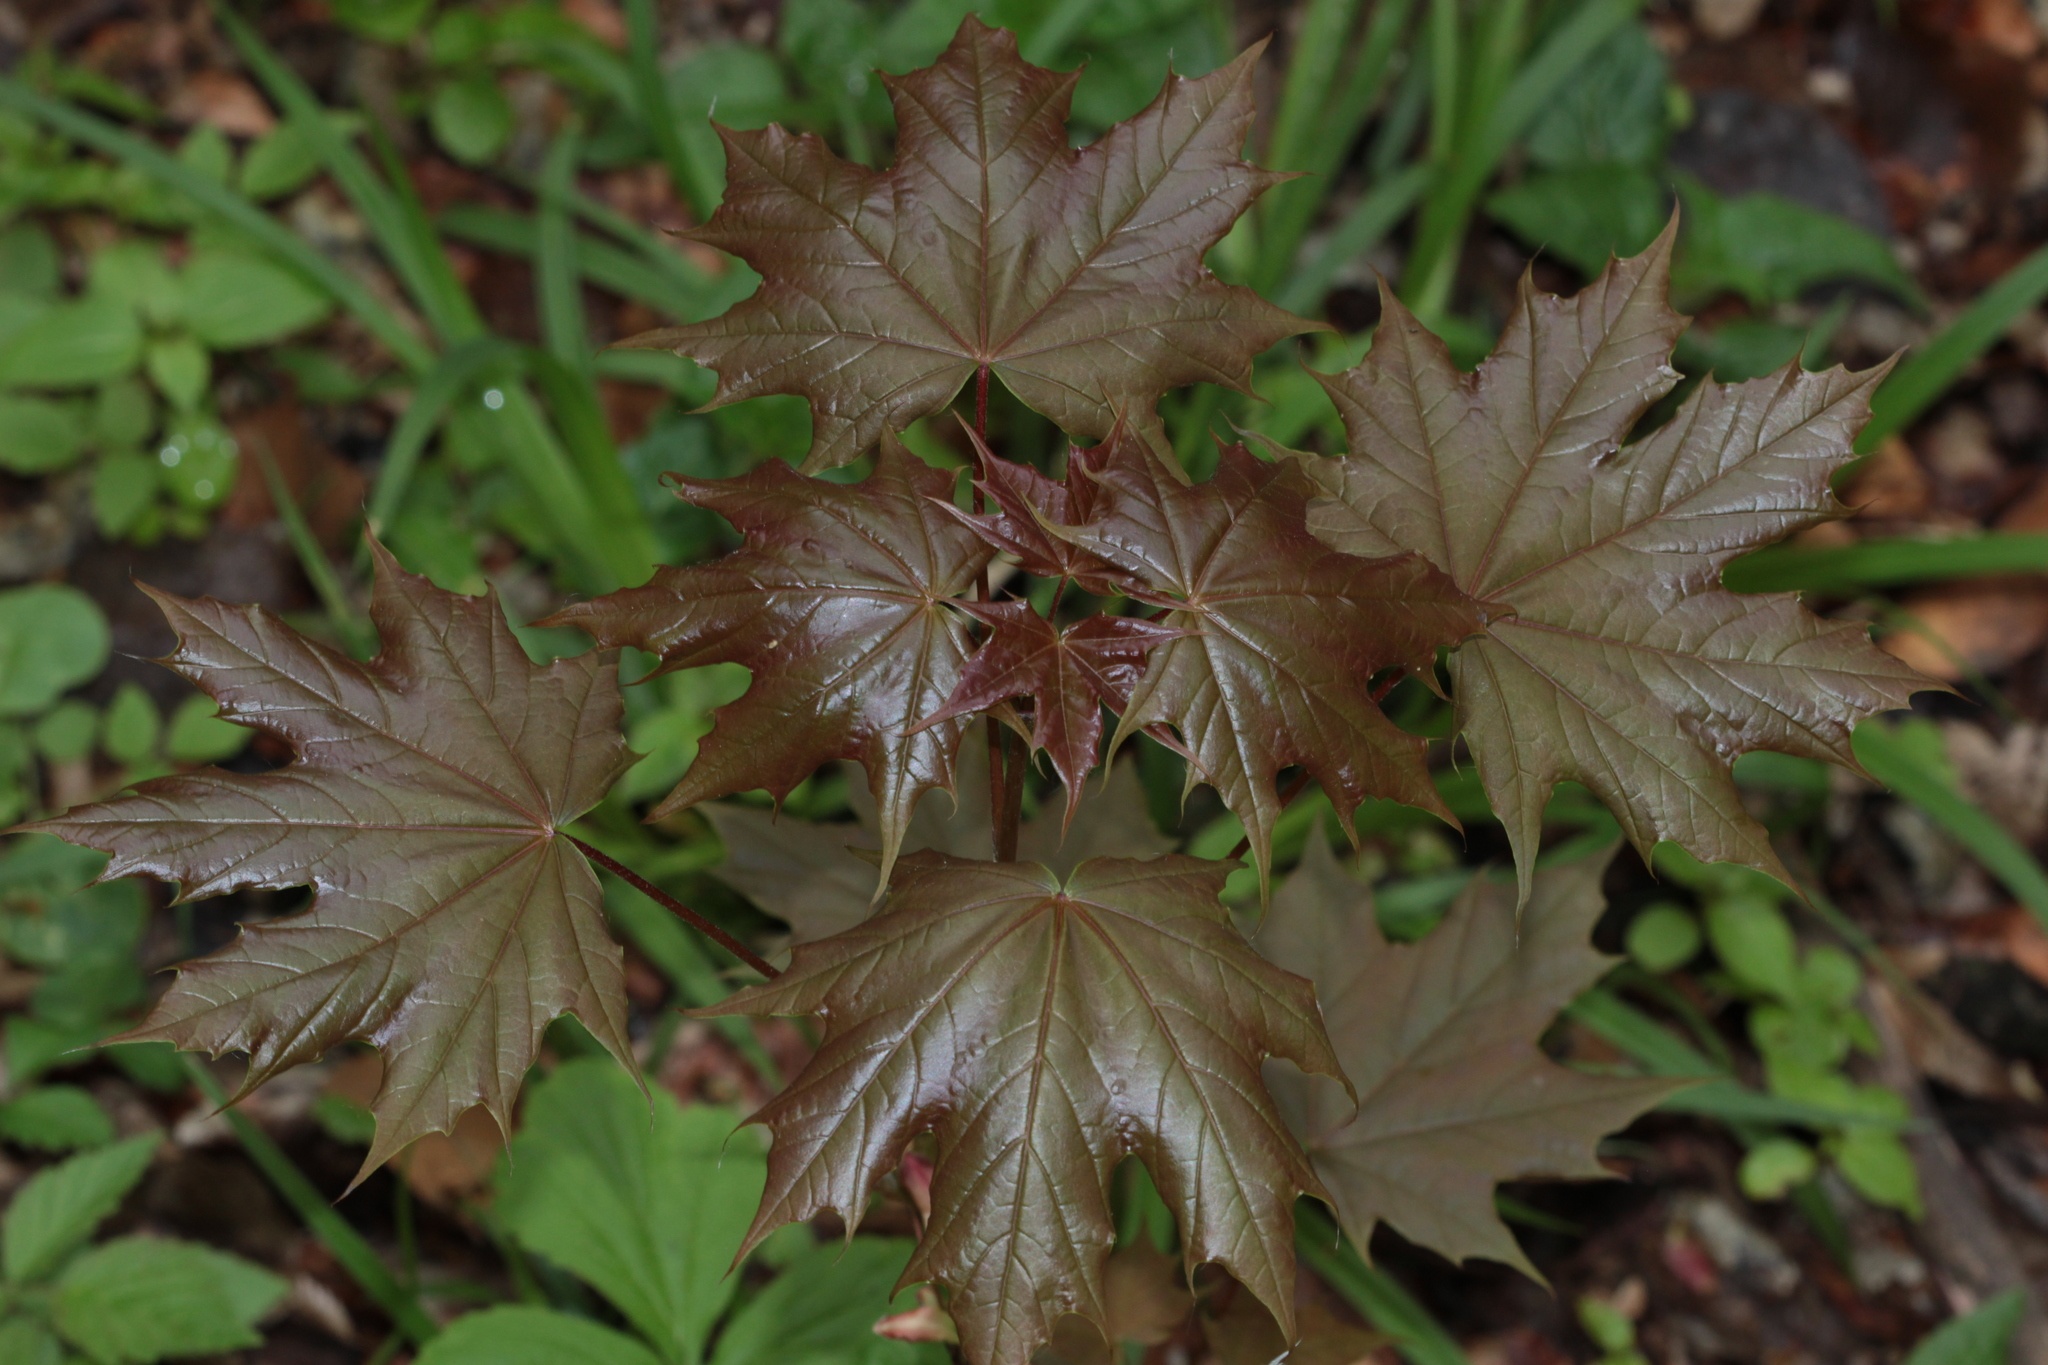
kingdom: Plantae
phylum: Tracheophyta
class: Magnoliopsida
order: Sapindales
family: Sapindaceae
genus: Acer
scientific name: Acer platanoides
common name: Norway maple
